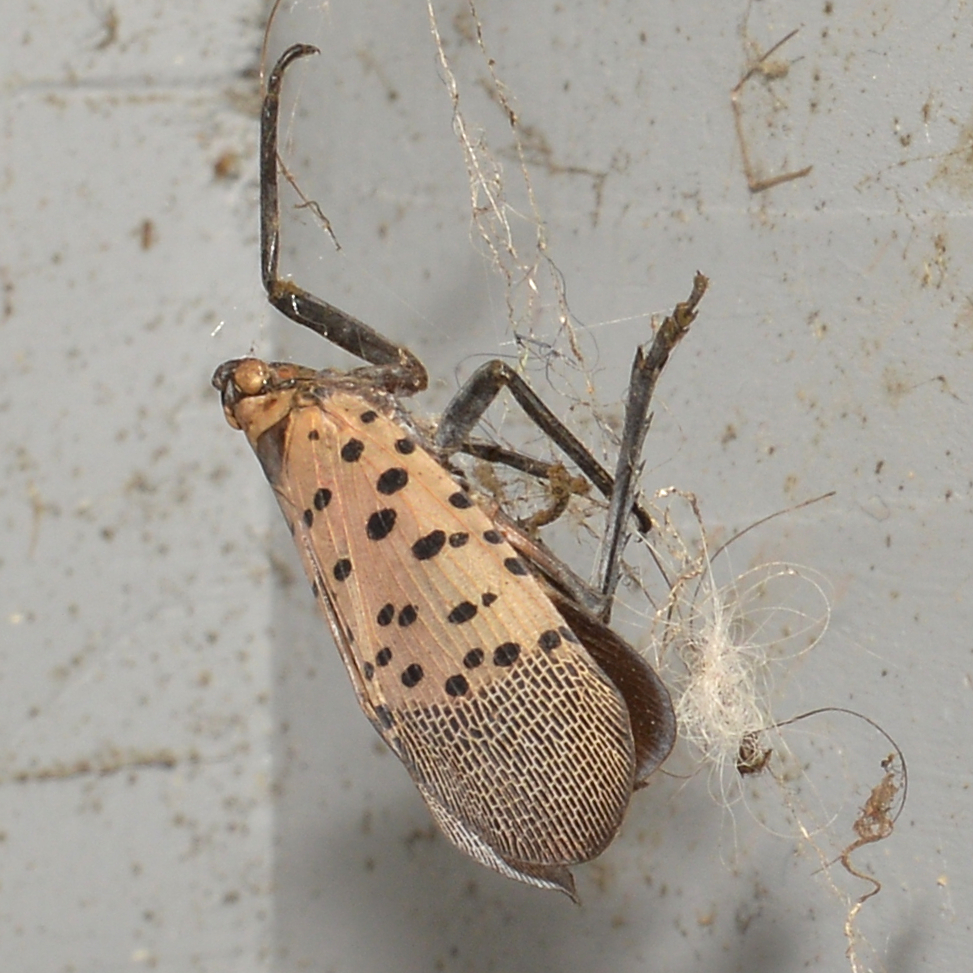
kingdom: Animalia
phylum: Arthropoda
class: Insecta
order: Hemiptera
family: Fulgoridae
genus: Lycorma
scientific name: Lycorma delicatula
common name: Spotted lanternfly
